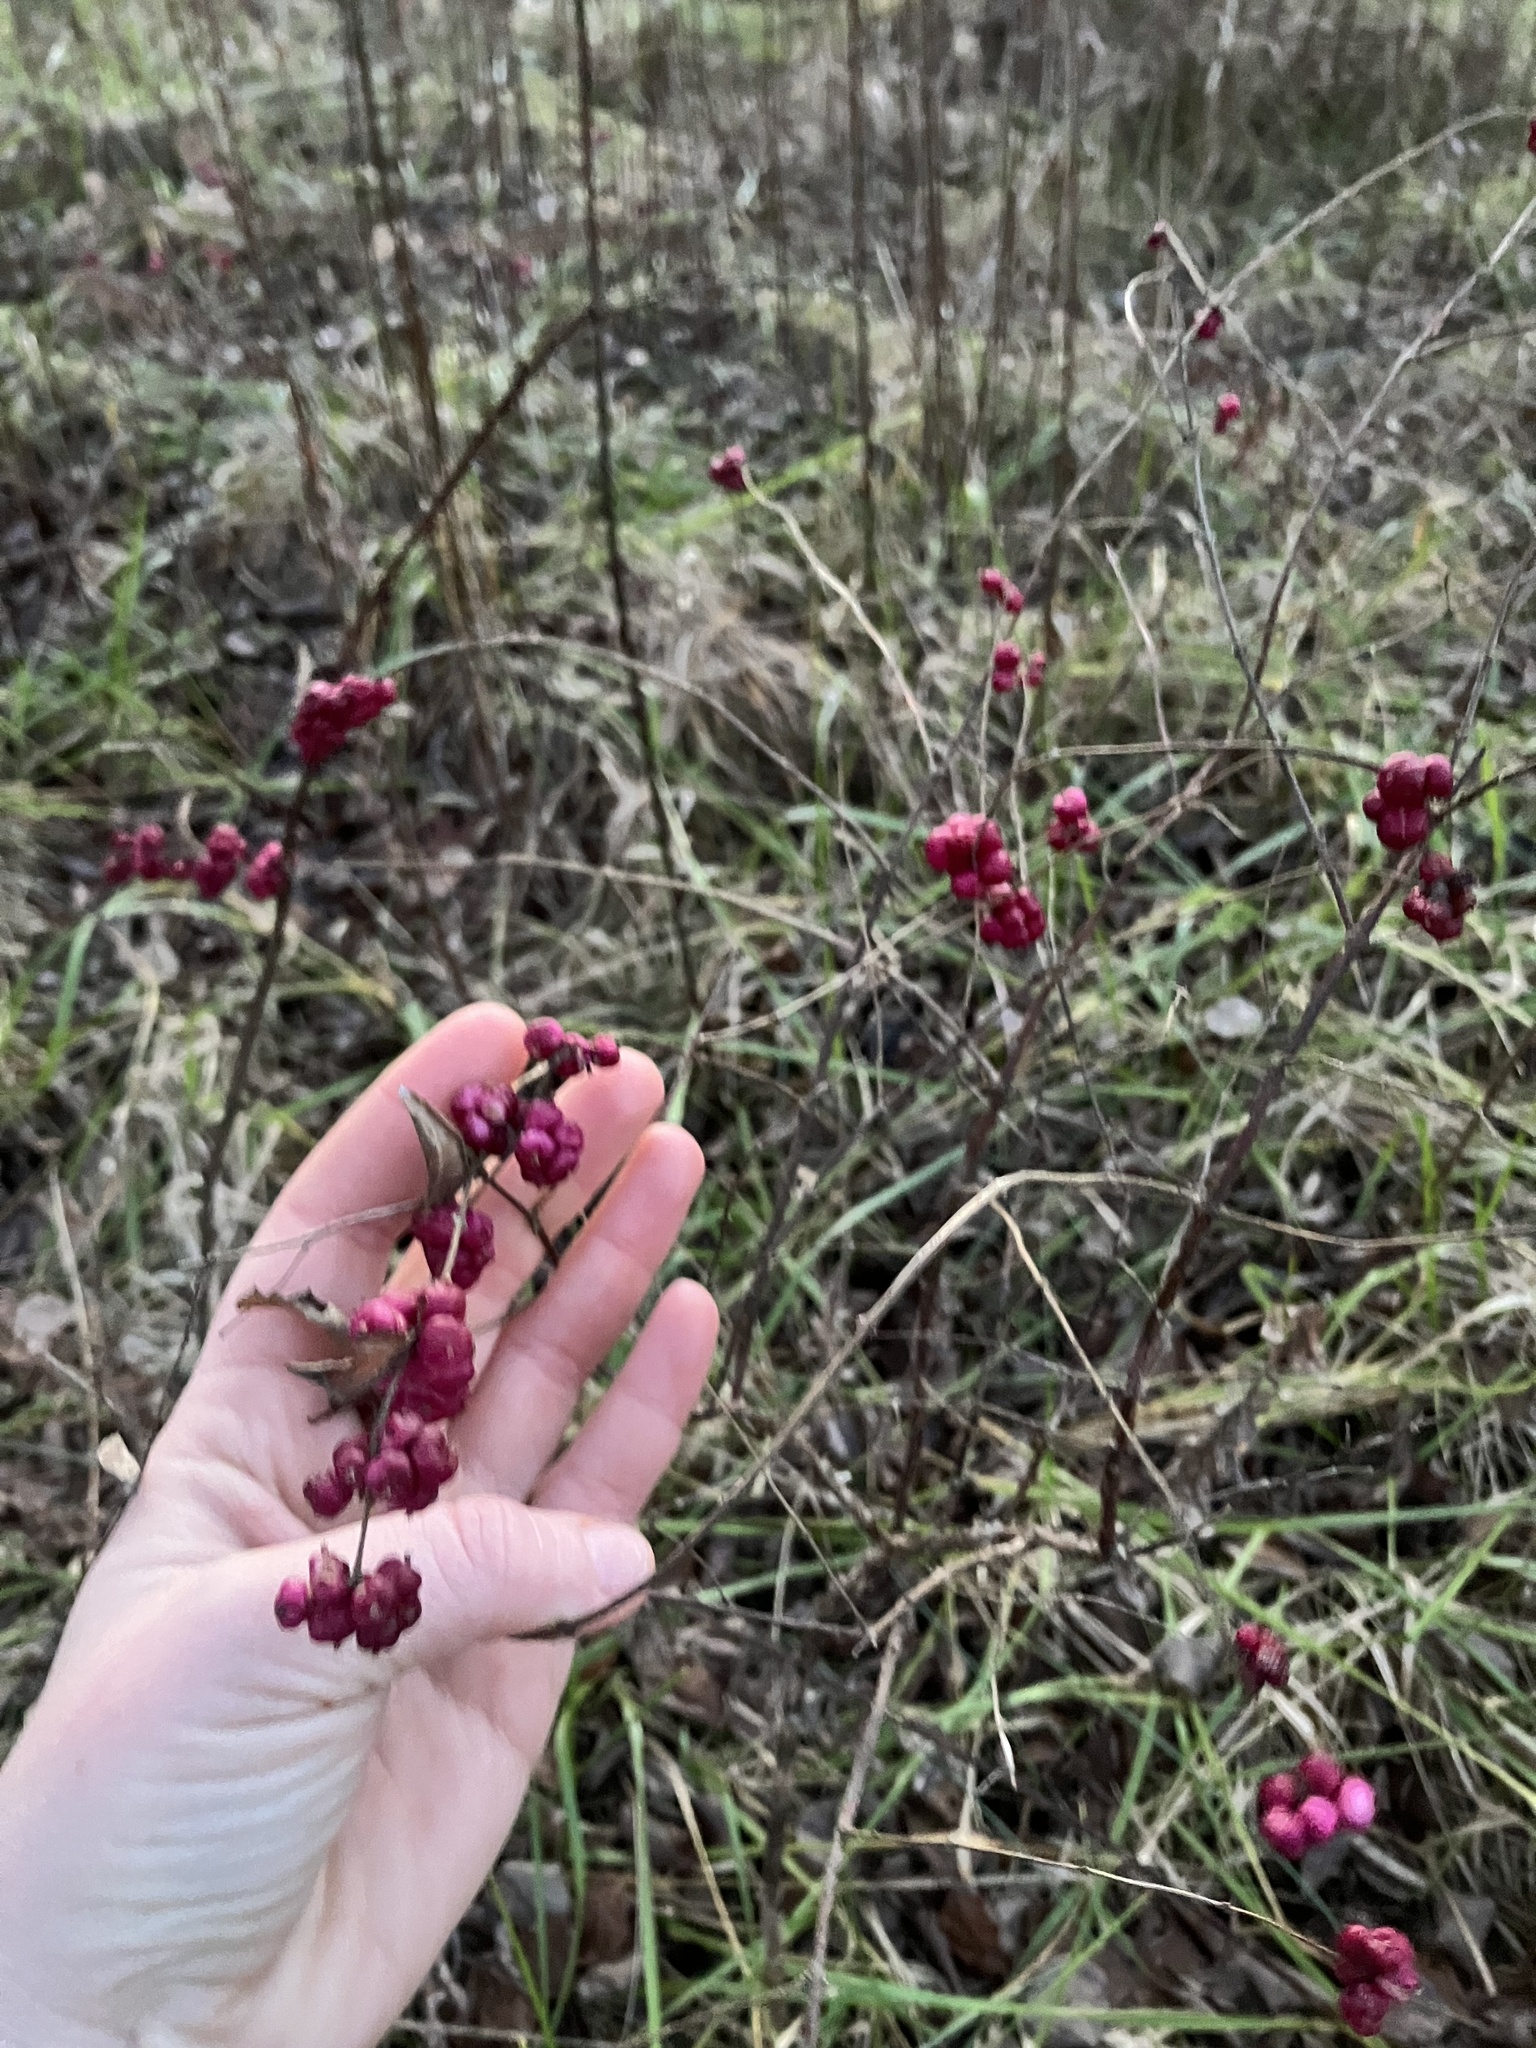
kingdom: Plantae
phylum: Tracheophyta
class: Magnoliopsida
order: Dipsacales
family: Caprifoliaceae
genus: Symphoricarpos
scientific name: Symphoricarpos orbiculatus
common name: Coralberry
